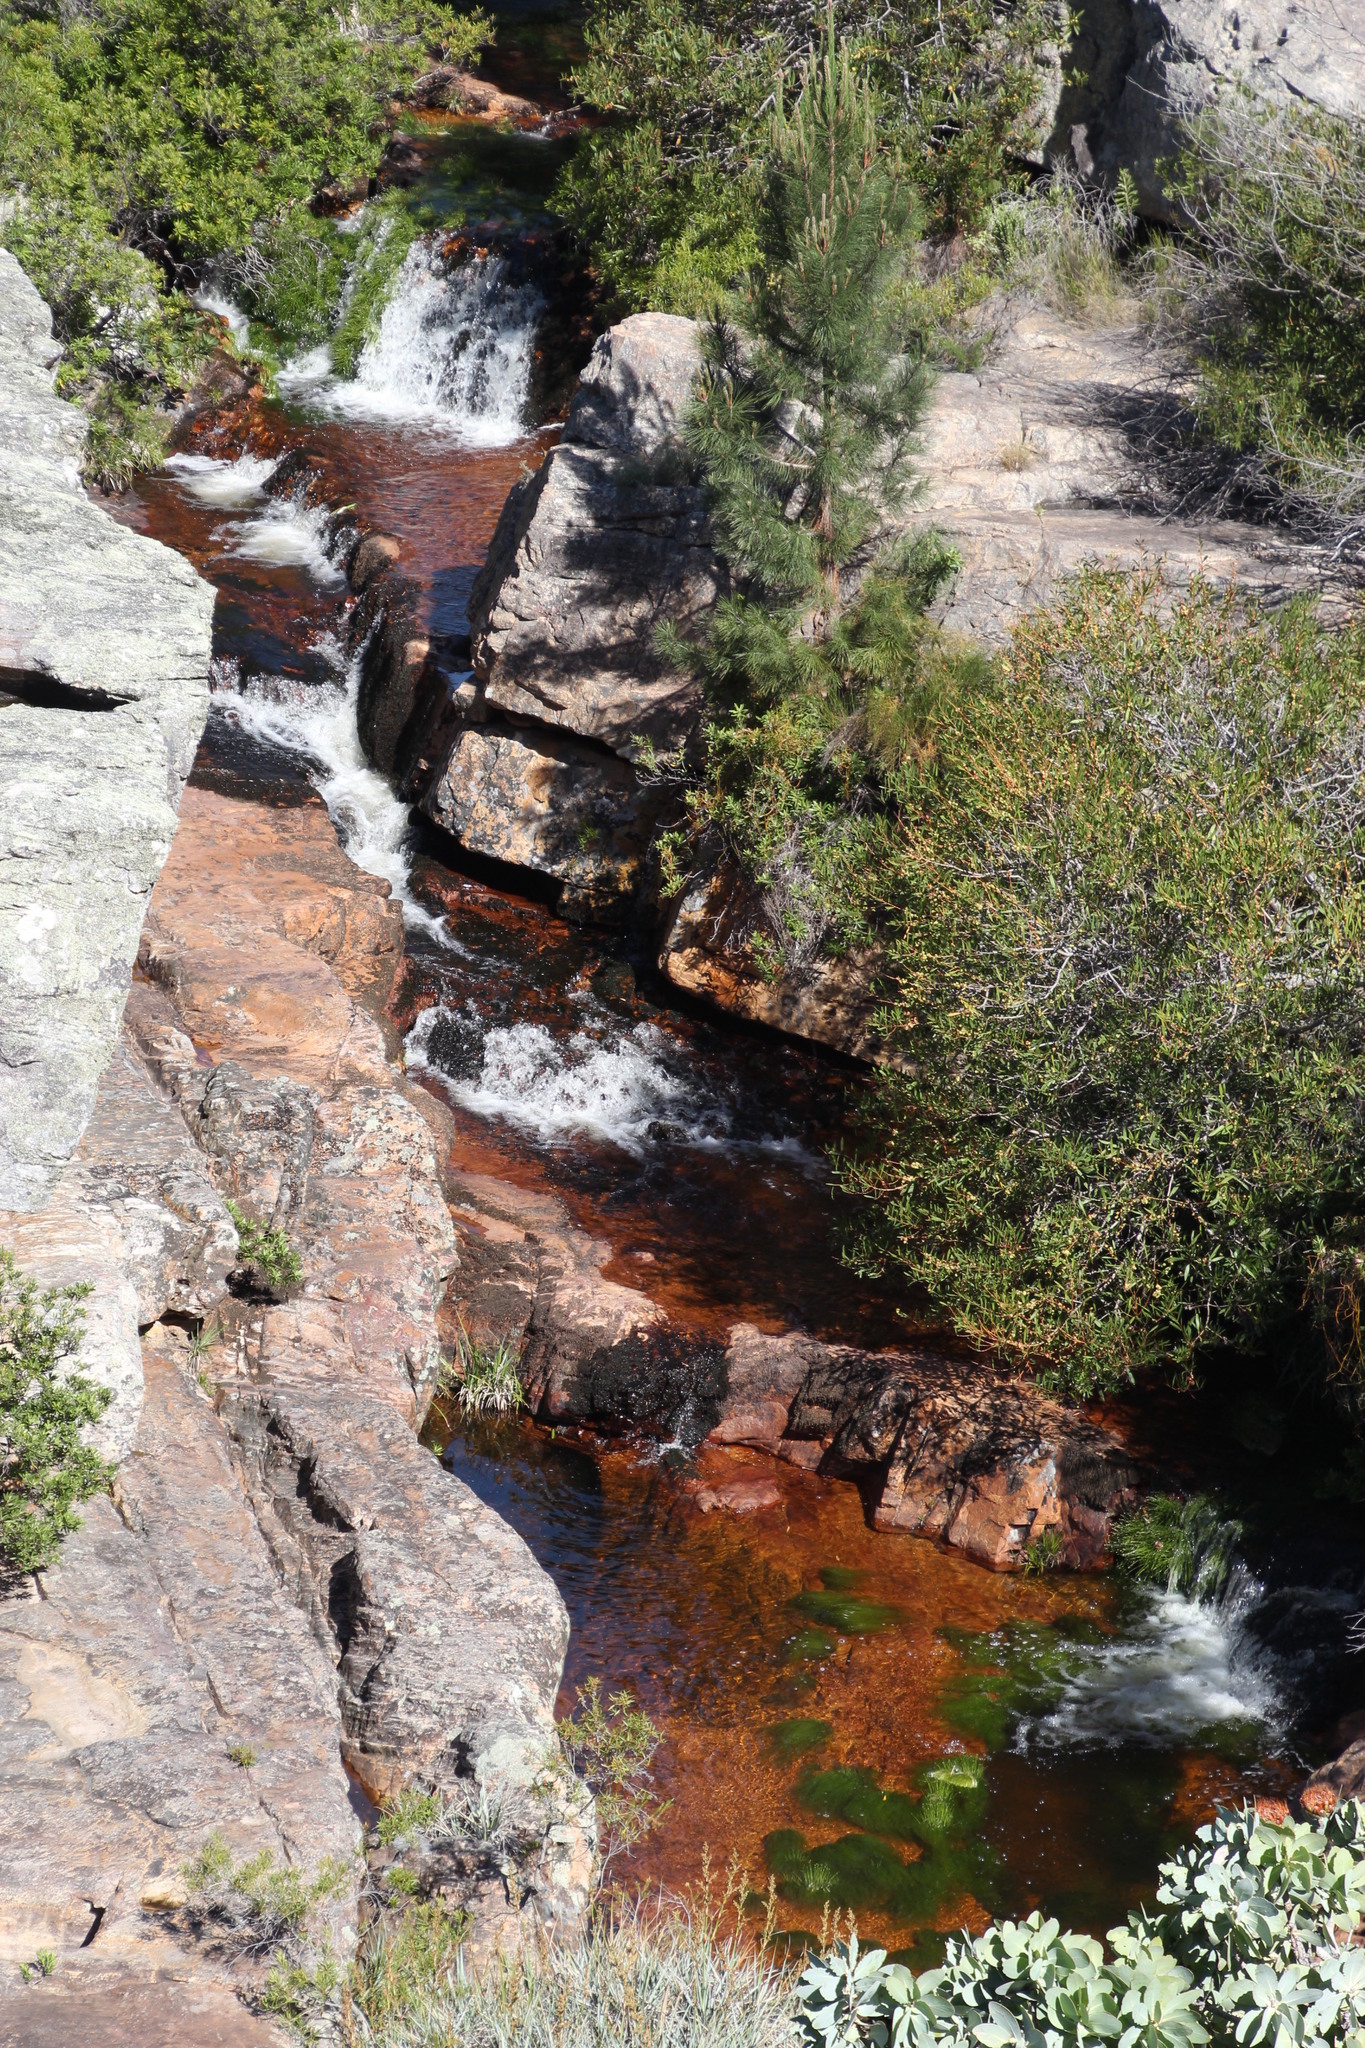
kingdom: Plantae
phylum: Tracheophyta
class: Liliopsida
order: Poales
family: Cyperaceae
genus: Isolepis
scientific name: Isolepis digitata
